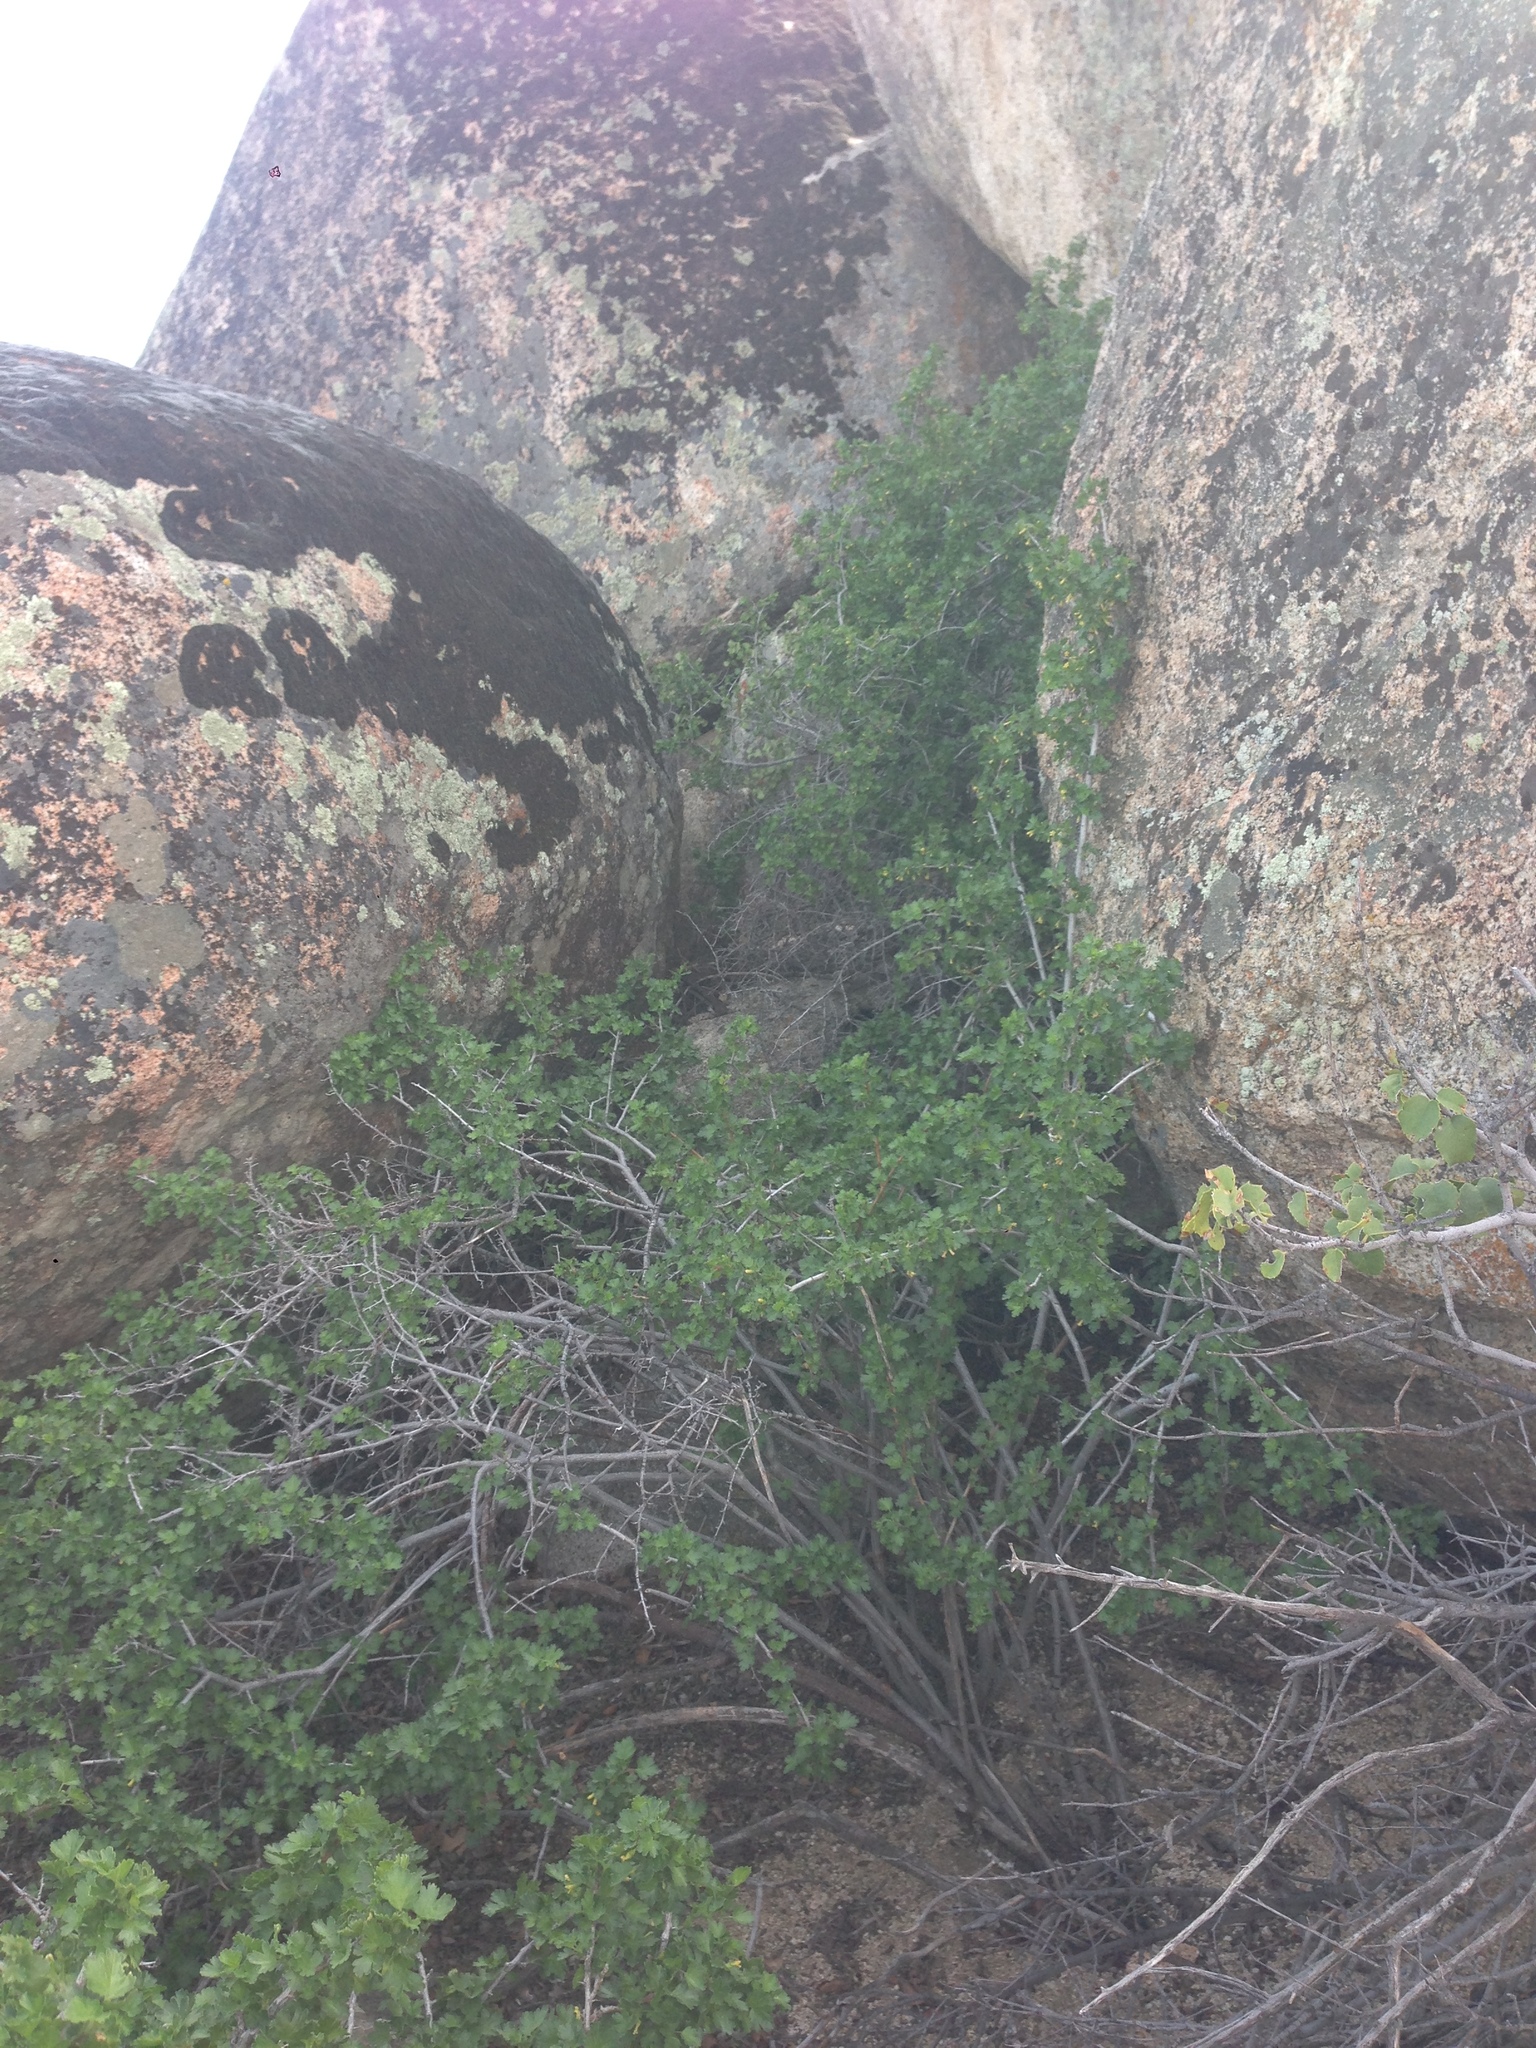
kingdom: Plantae
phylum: Tracheophyta
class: Magnoliopsida
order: Saxifragales
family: Grossulariaceae
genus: Ribes
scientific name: Ribes quercetorum
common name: Oak gooseberry
